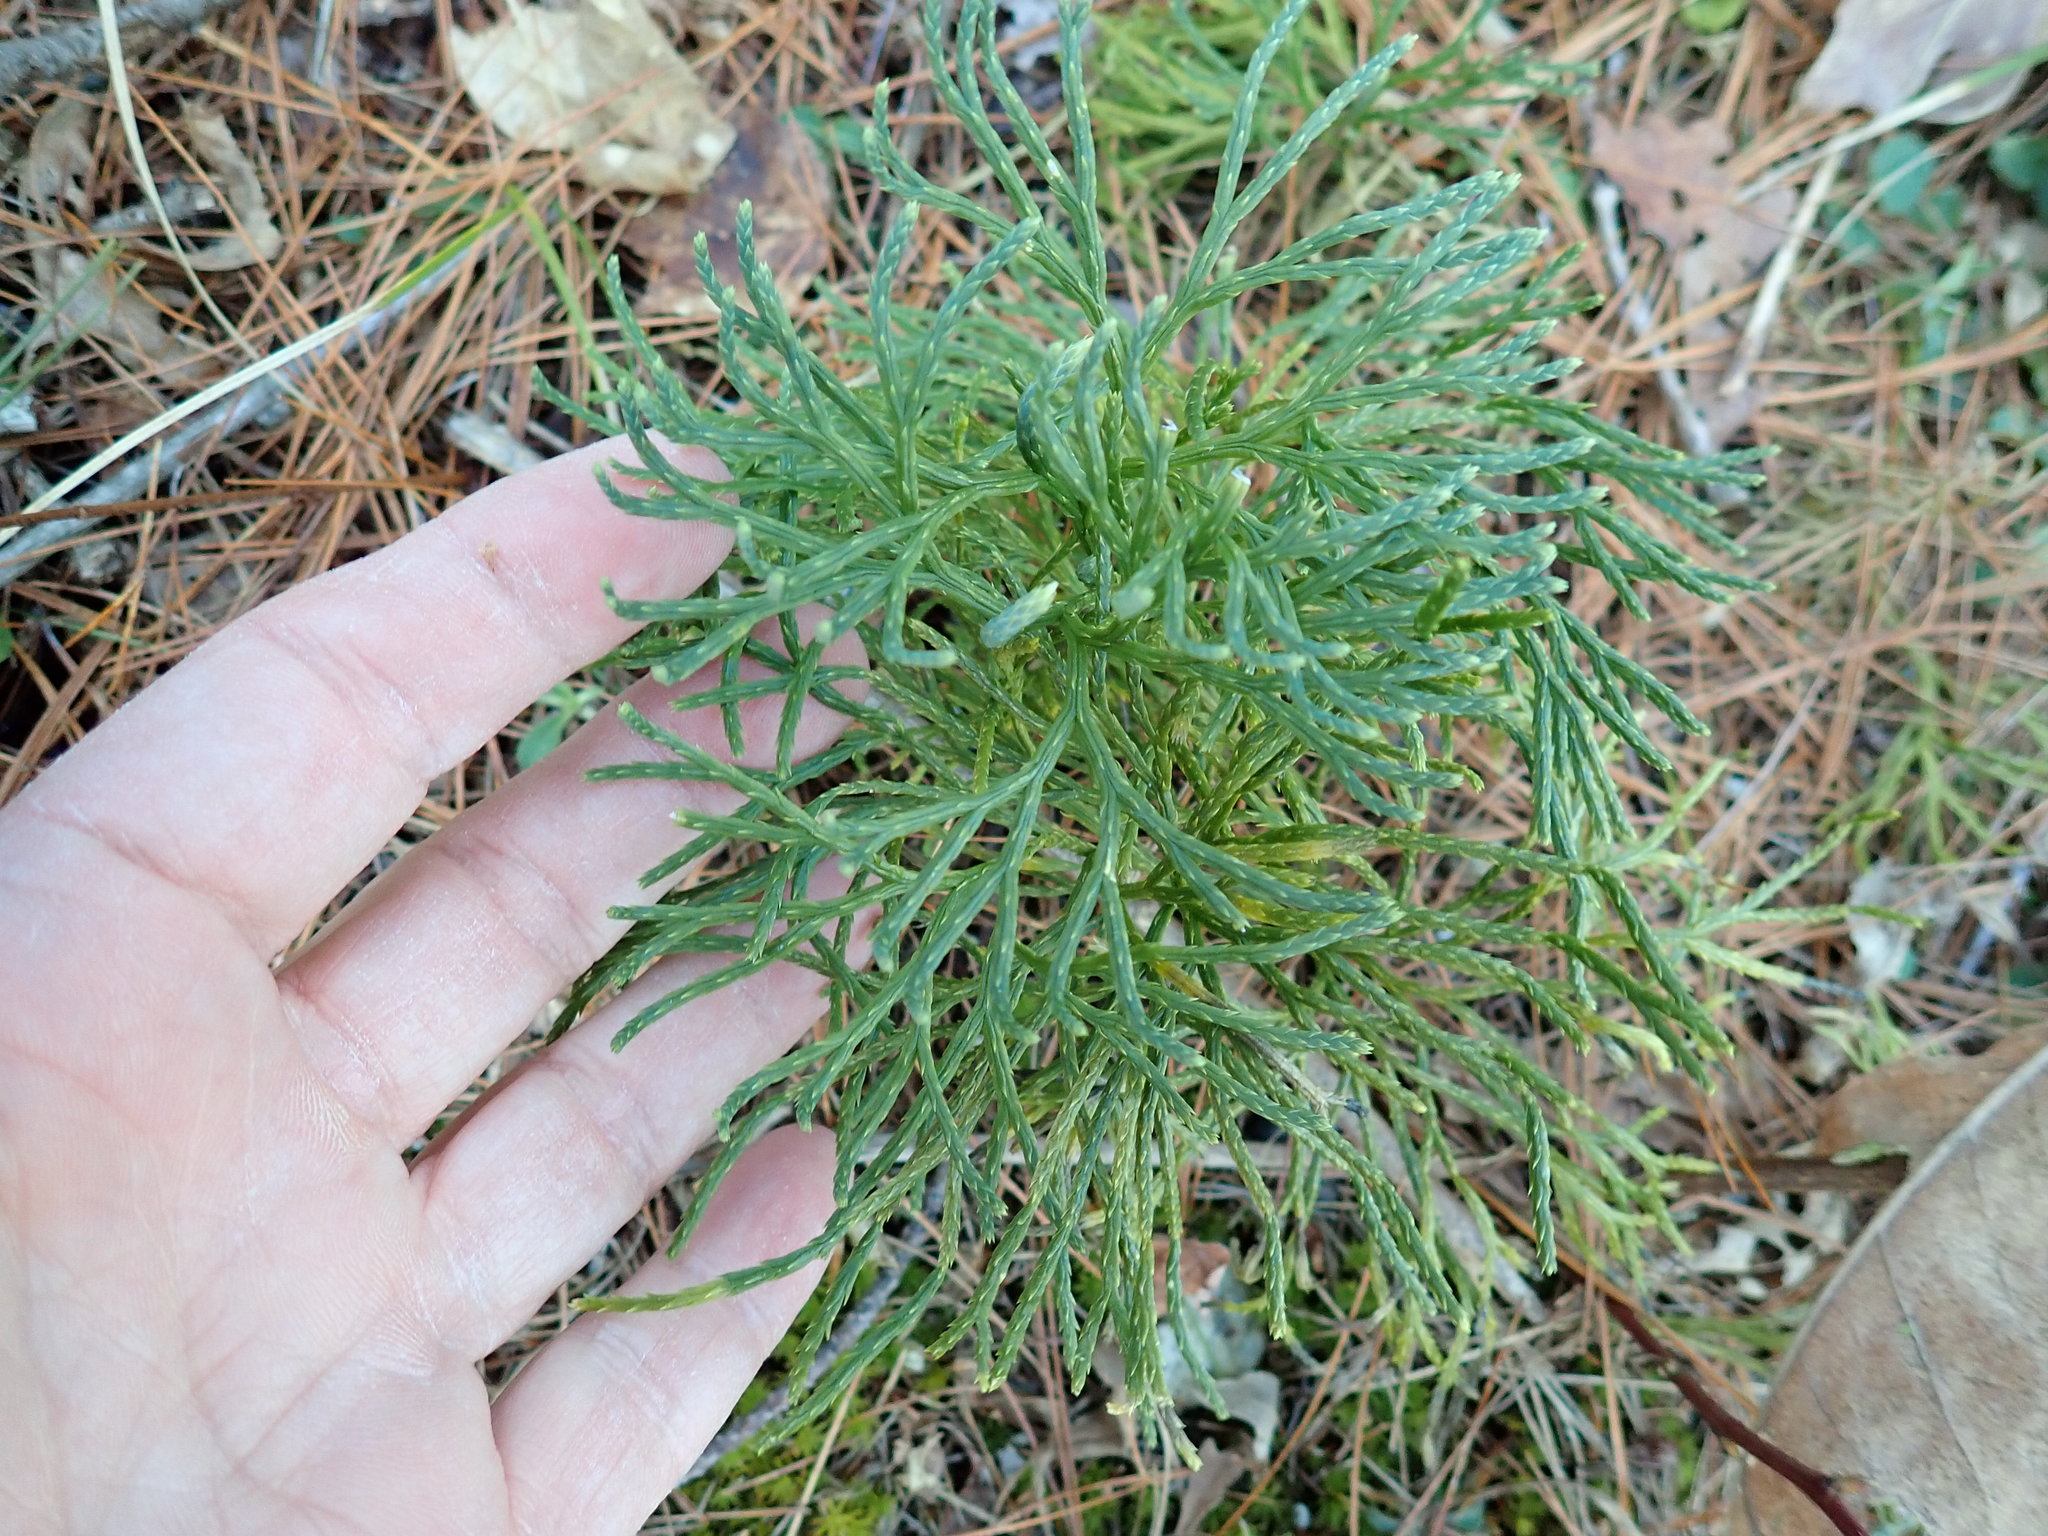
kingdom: Plantae
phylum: Tracheophyta
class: Lycopodiopsida
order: Lycopodiales
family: Lycopodiaceae
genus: Diphasiastrum
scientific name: Diphasiastrum tristachyum
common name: Blue ground-cedar
